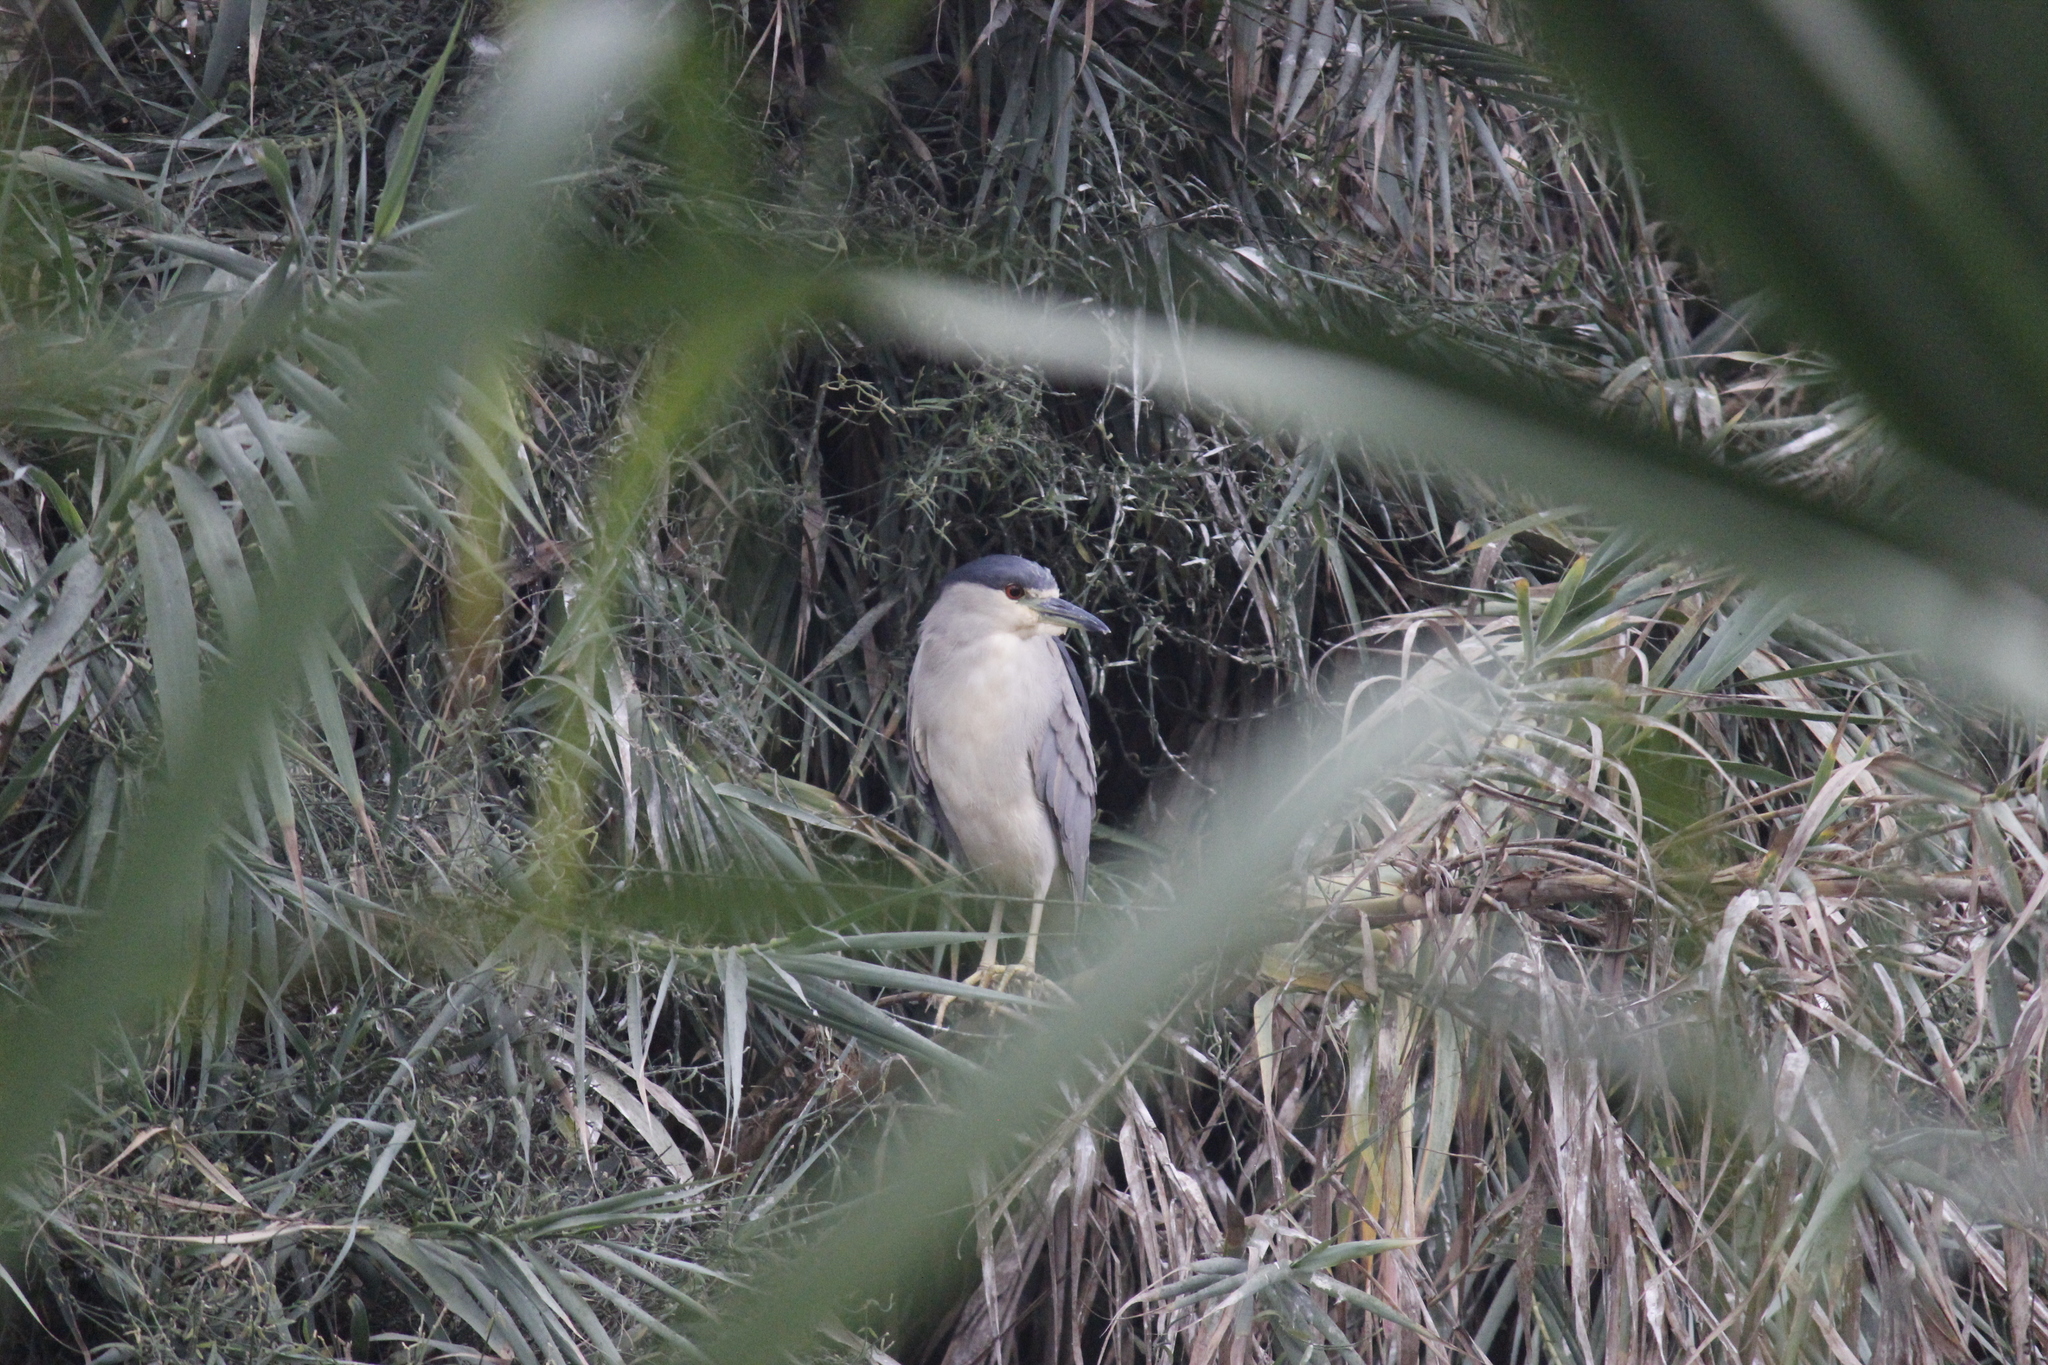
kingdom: Animalia
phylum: Chordata
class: Aves
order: Pelecaniformes
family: Ardeidae
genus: Nycticorax
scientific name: Nycticorax nycticorax
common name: Black-crowned night heron
